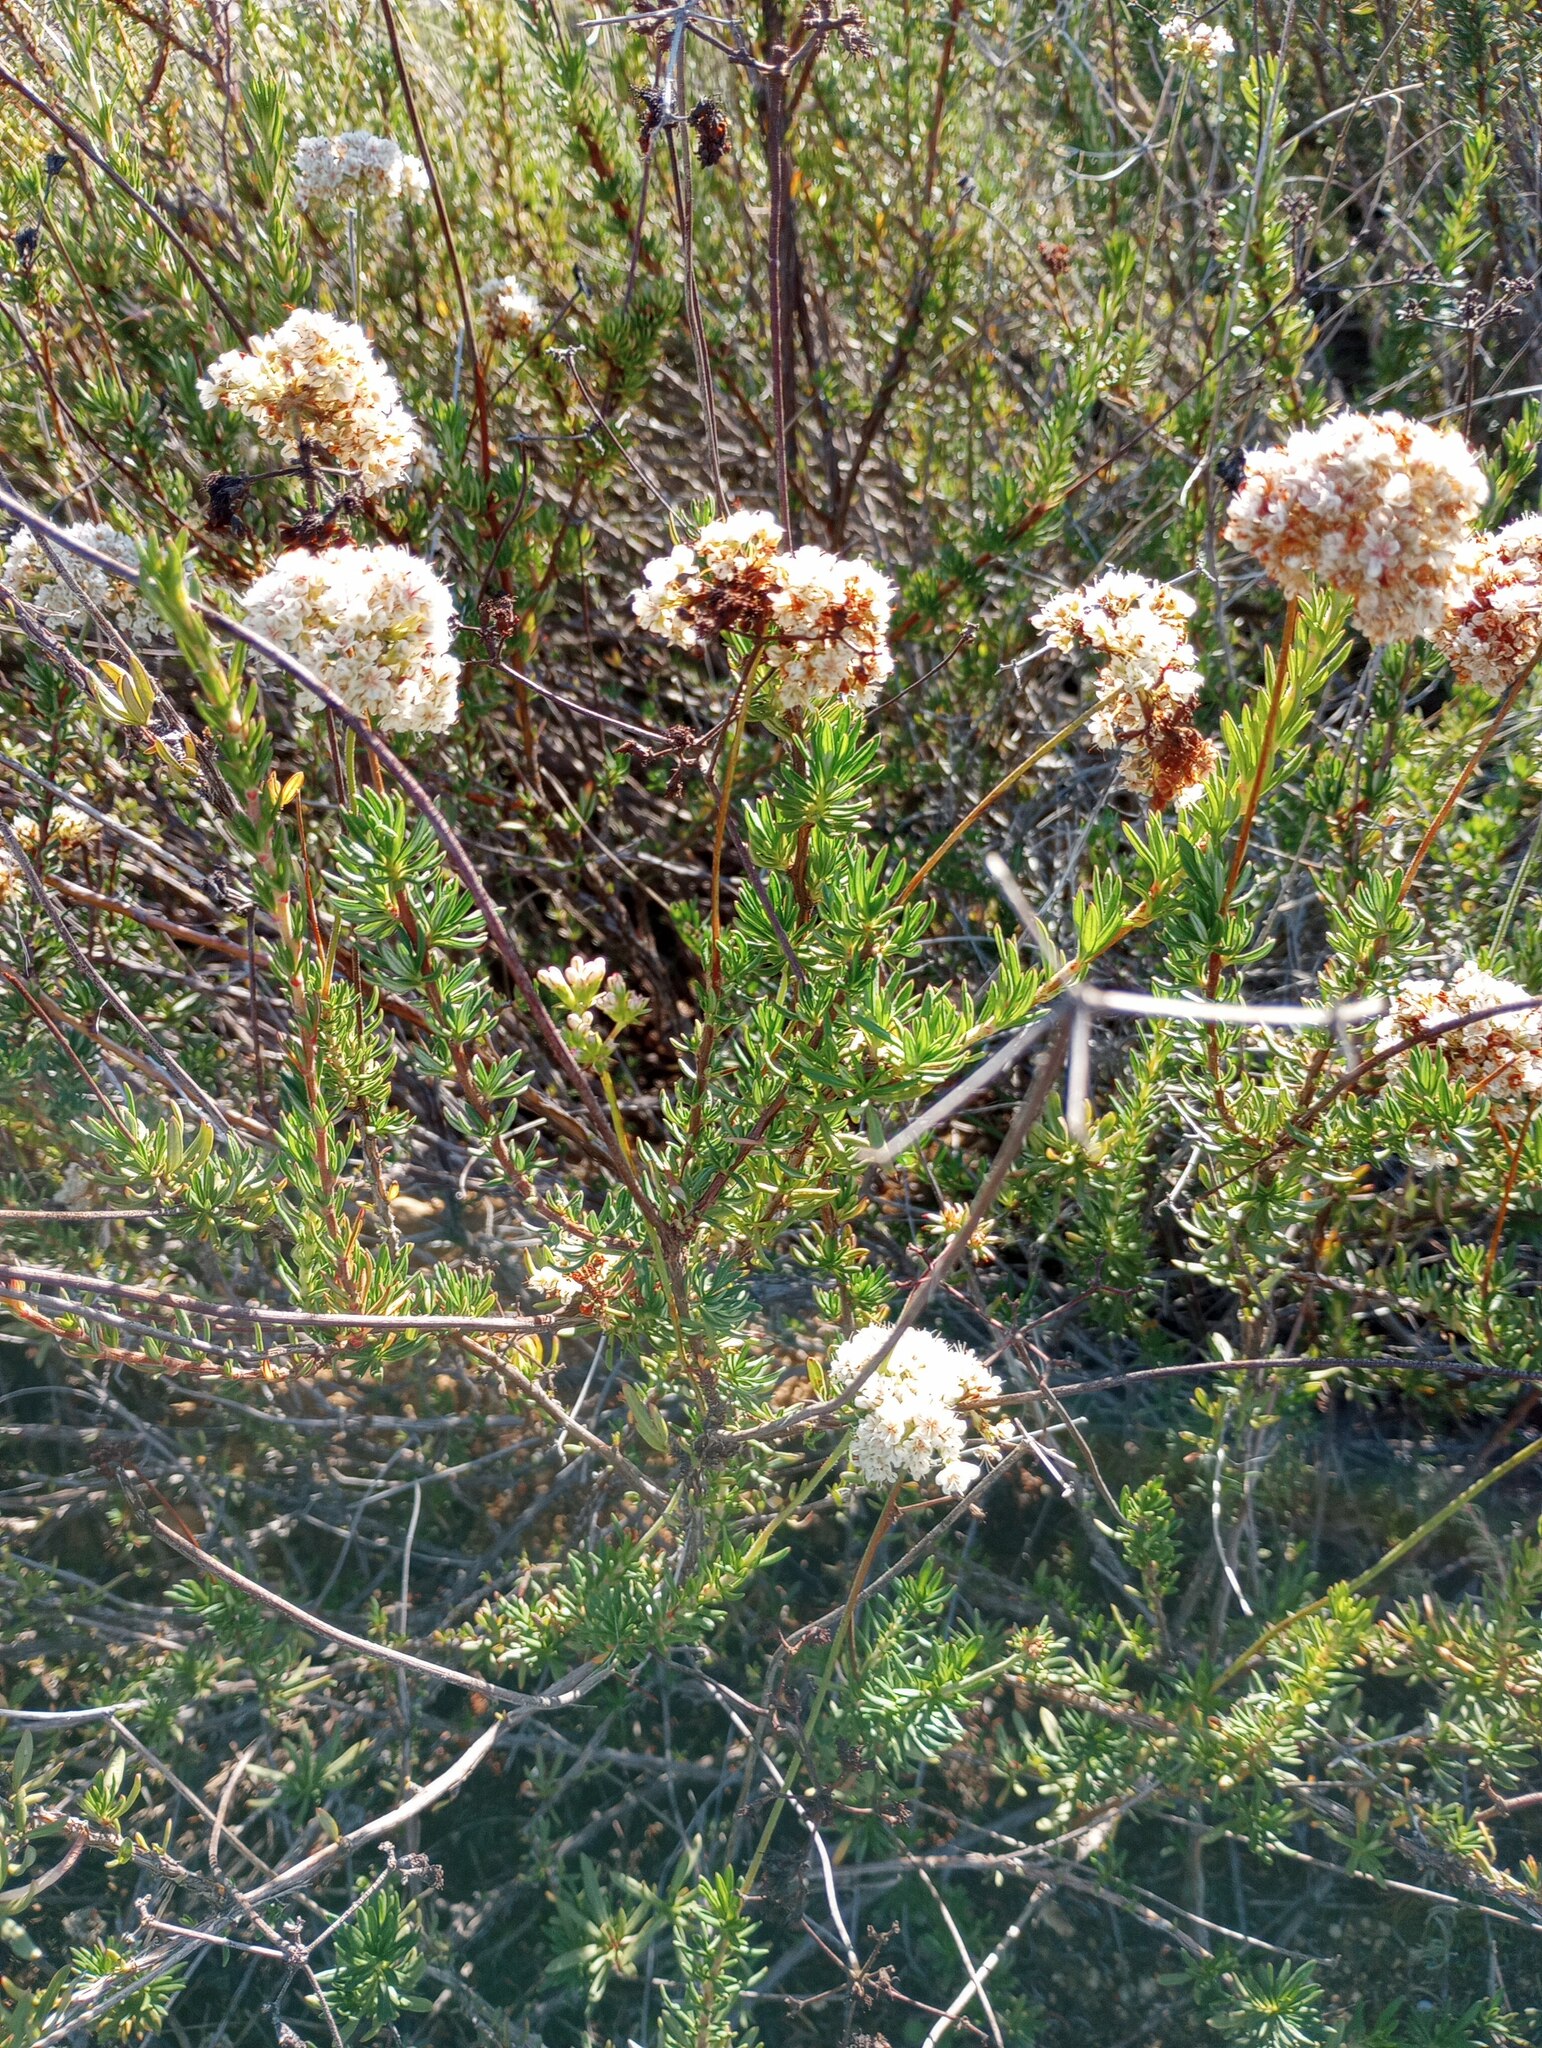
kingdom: Plantae
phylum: Tracheophyta
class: Magnoliopsida
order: Caryophyllales
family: Polygonaceae
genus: Eriogonum
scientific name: Eriogonum fasciculatum
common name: California wild buckwheat
